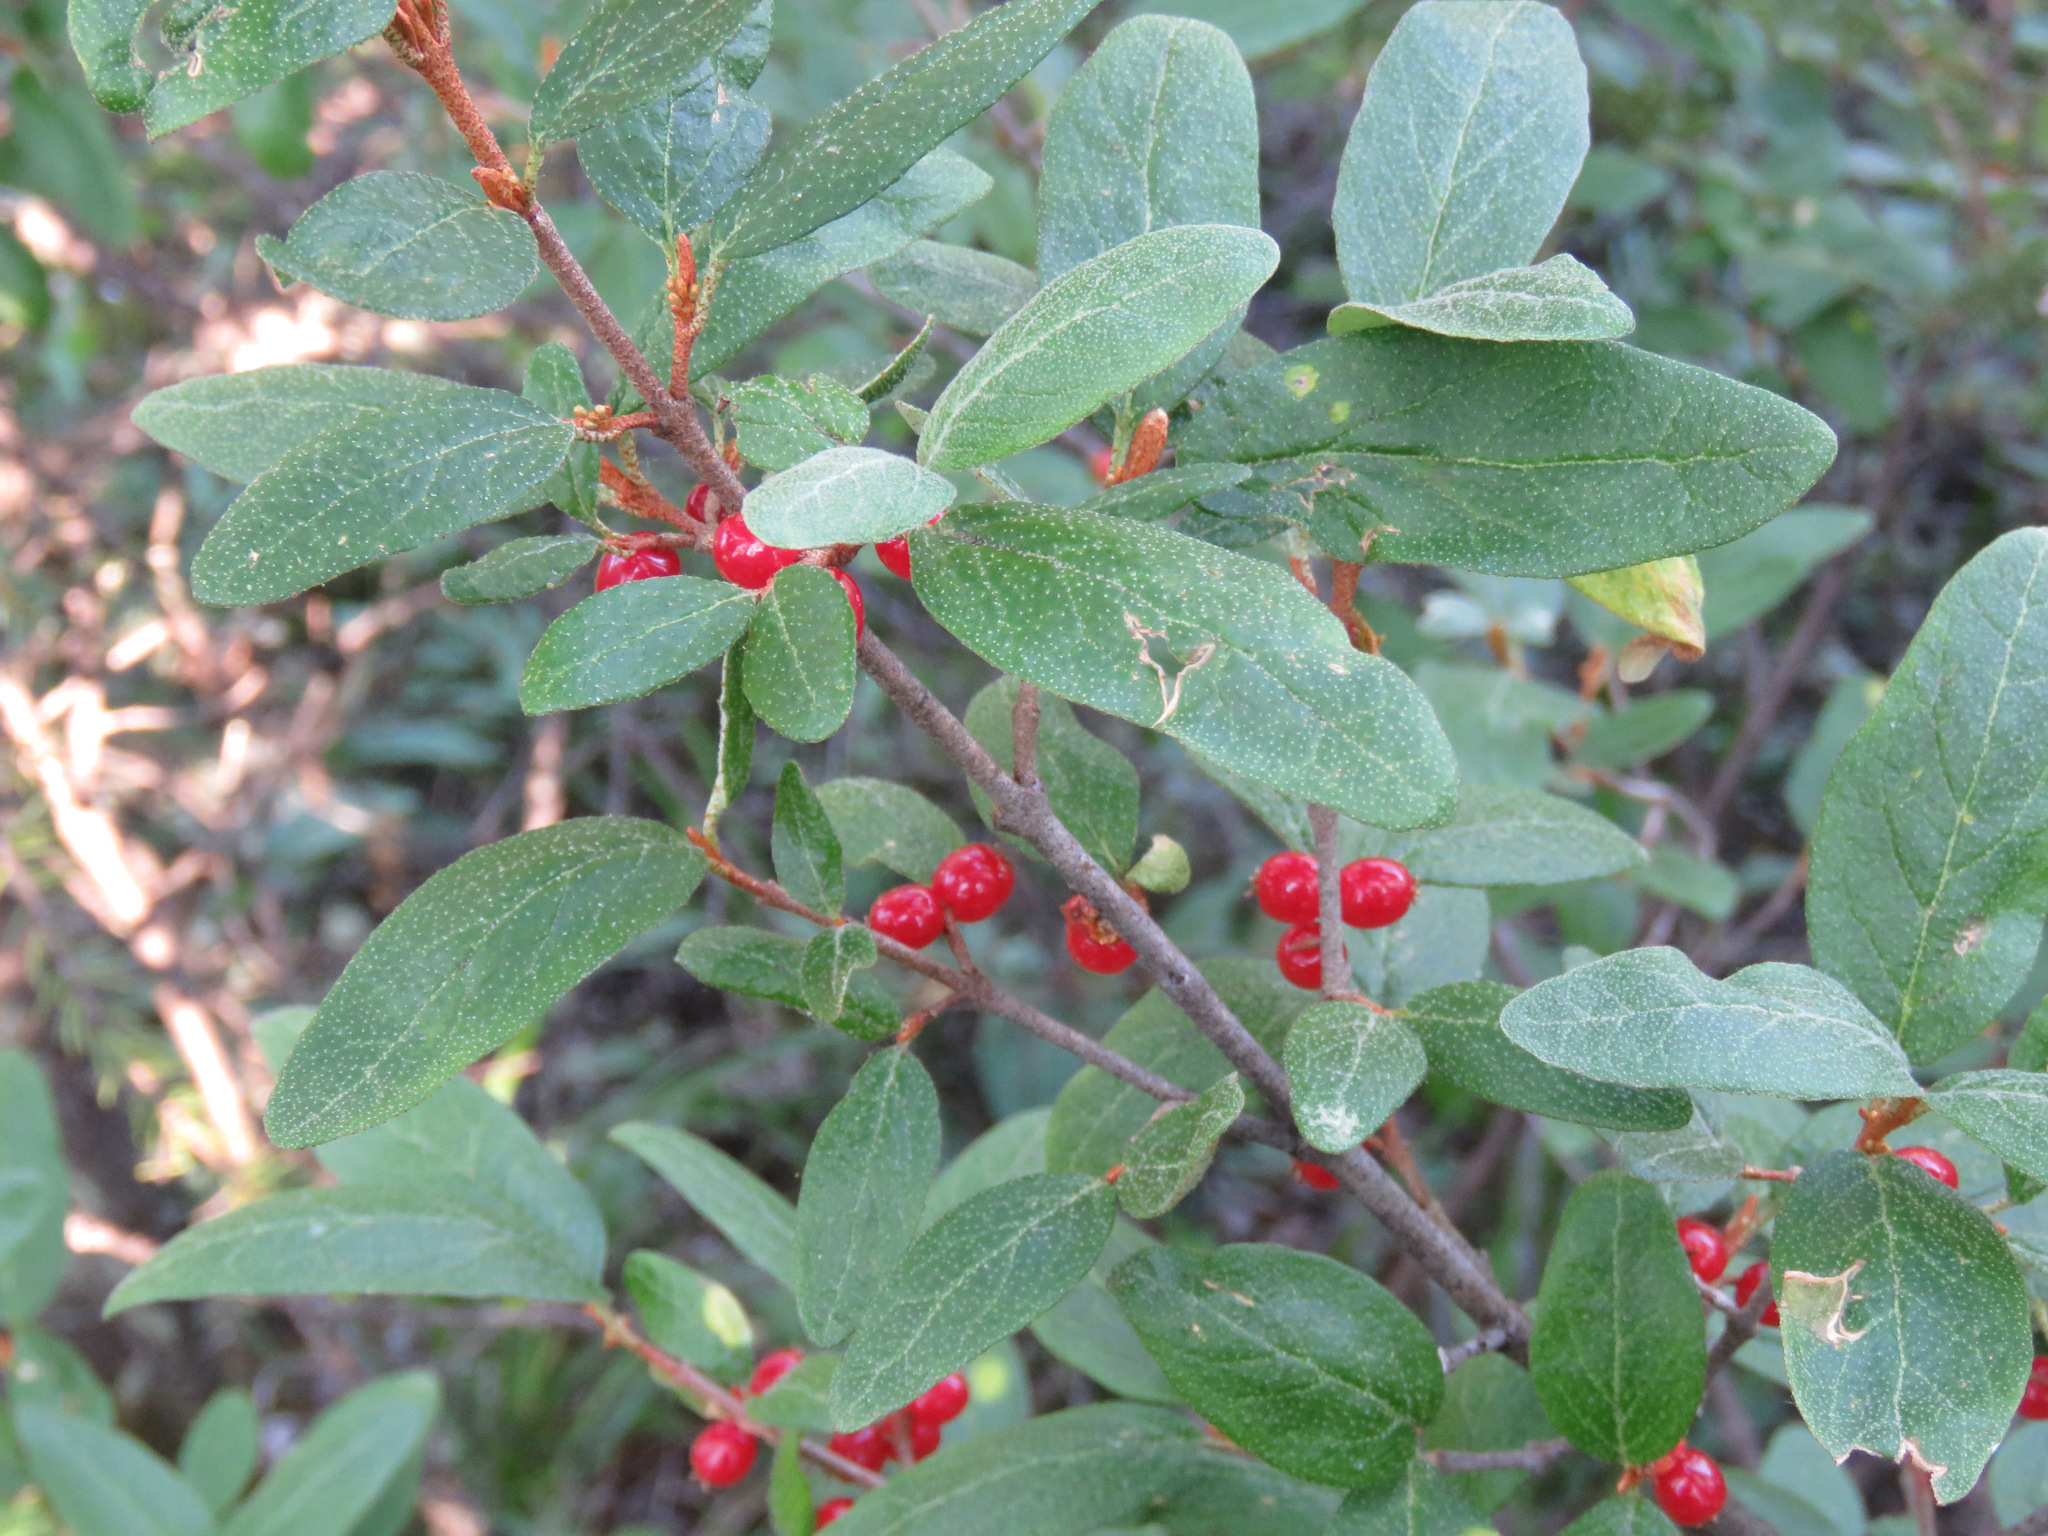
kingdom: Plantae
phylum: Tracheophyta
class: Magnoliopsida
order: Rosales
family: Elaeagnaceae
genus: Shepherdia
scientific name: Shepherdia canadensis
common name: Soapberry
